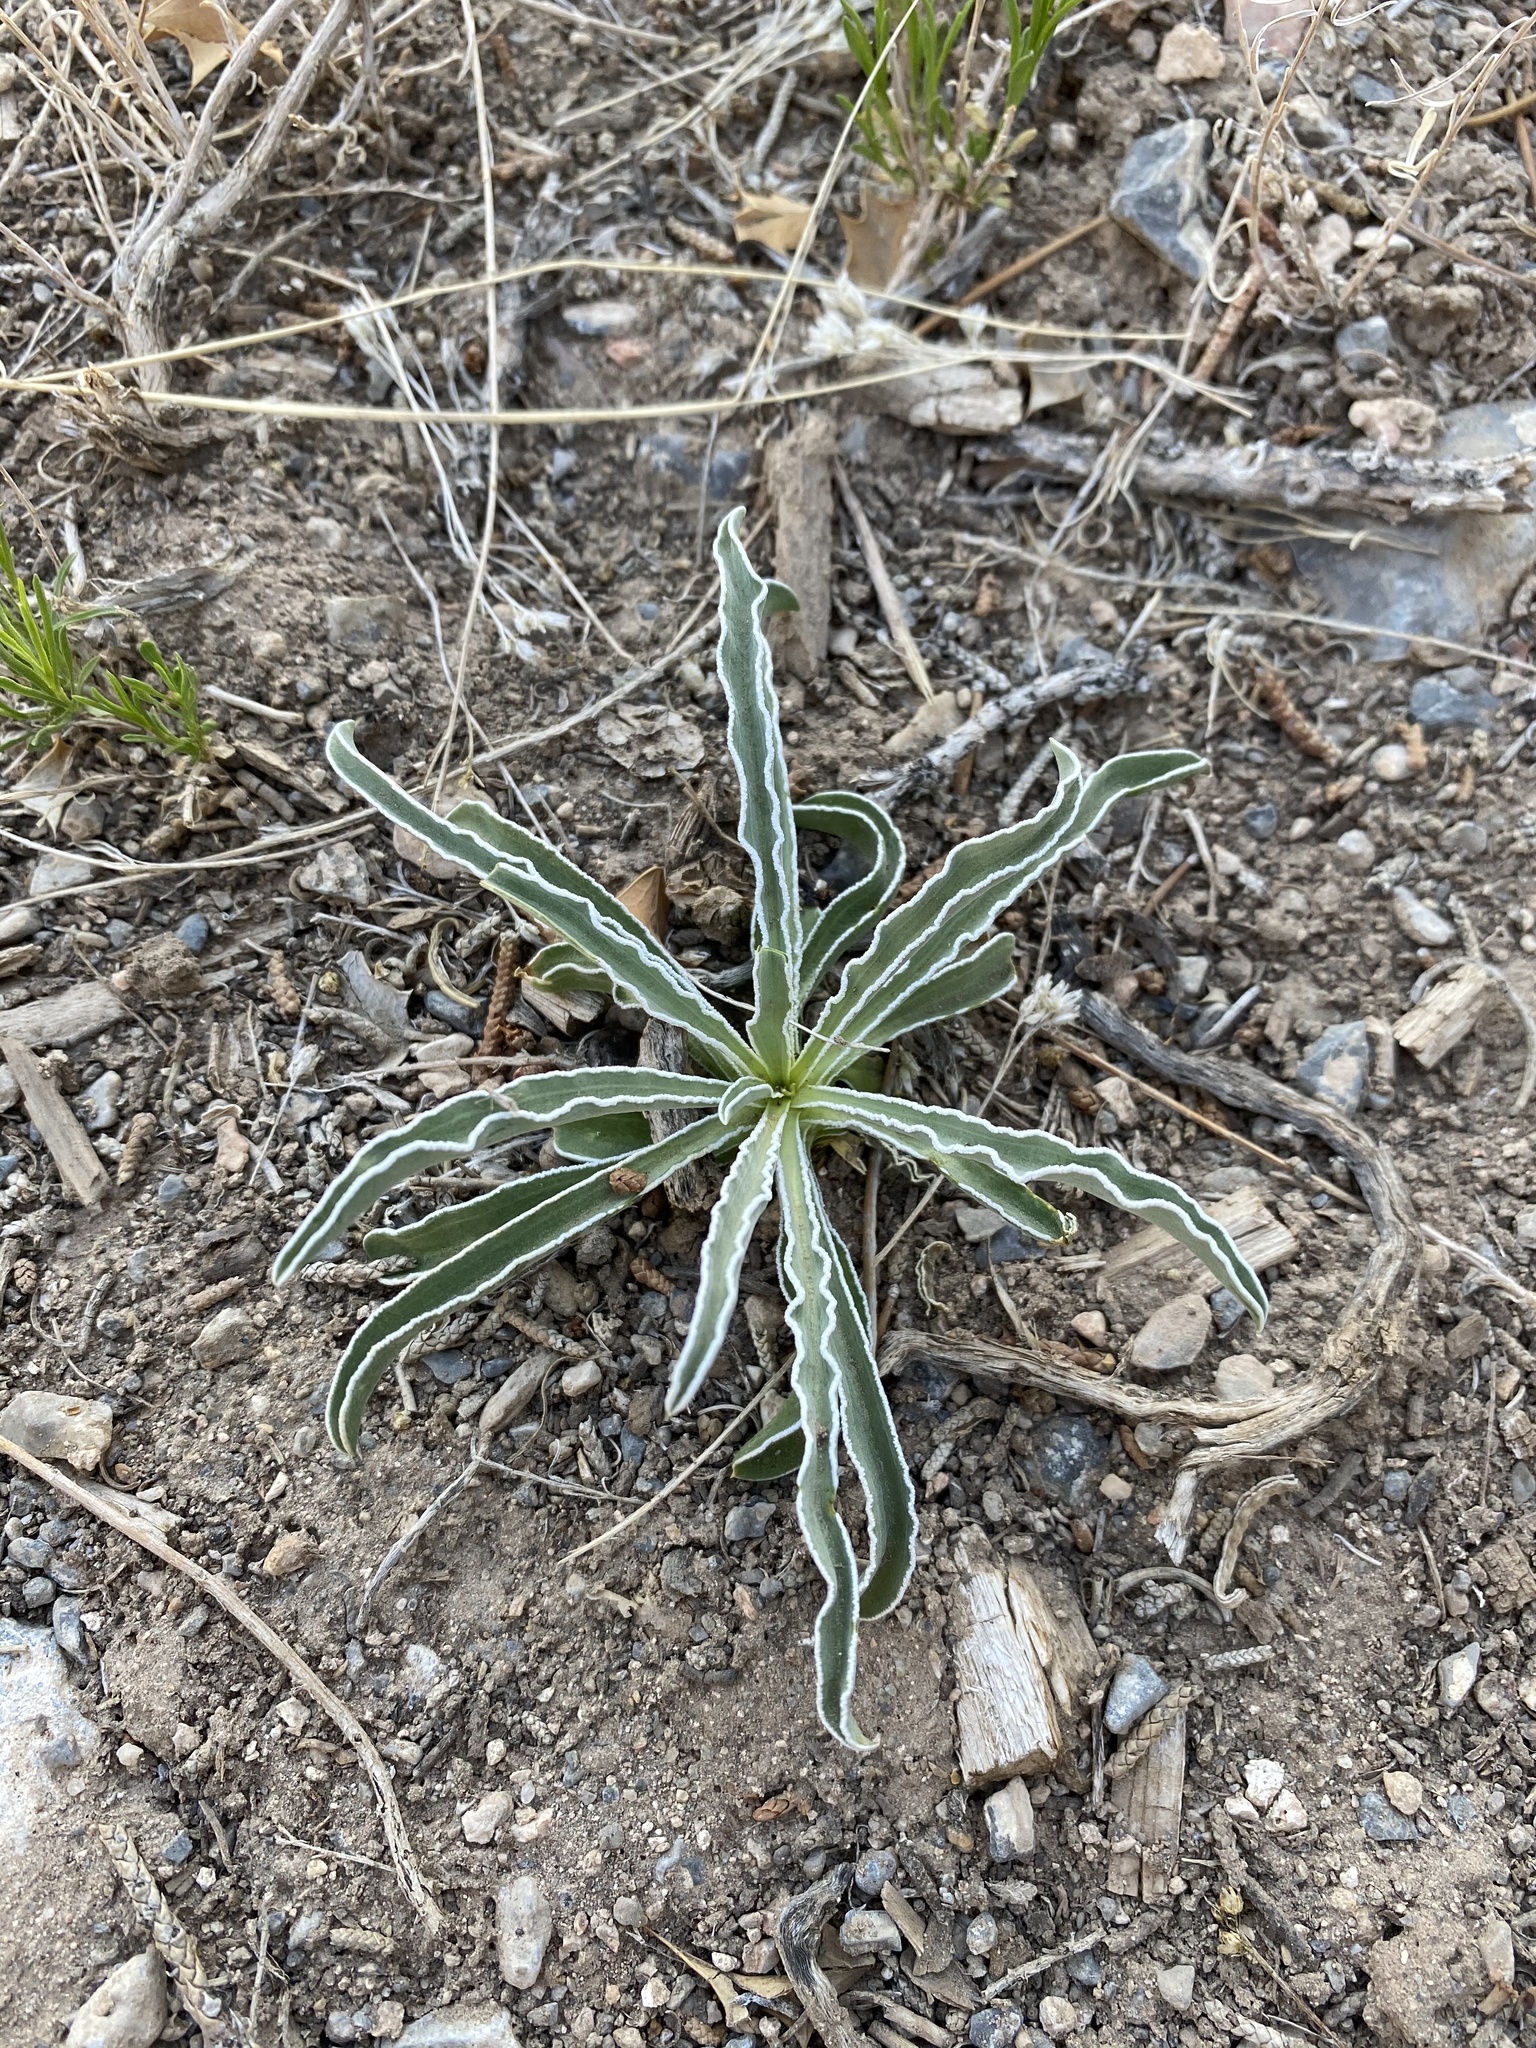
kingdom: Plantae
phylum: Tracheophyta
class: Magnoliopsida
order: Gentianales
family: Gentianaceae
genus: Frasera
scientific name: Frasera albomarginata
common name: Desert frasera
